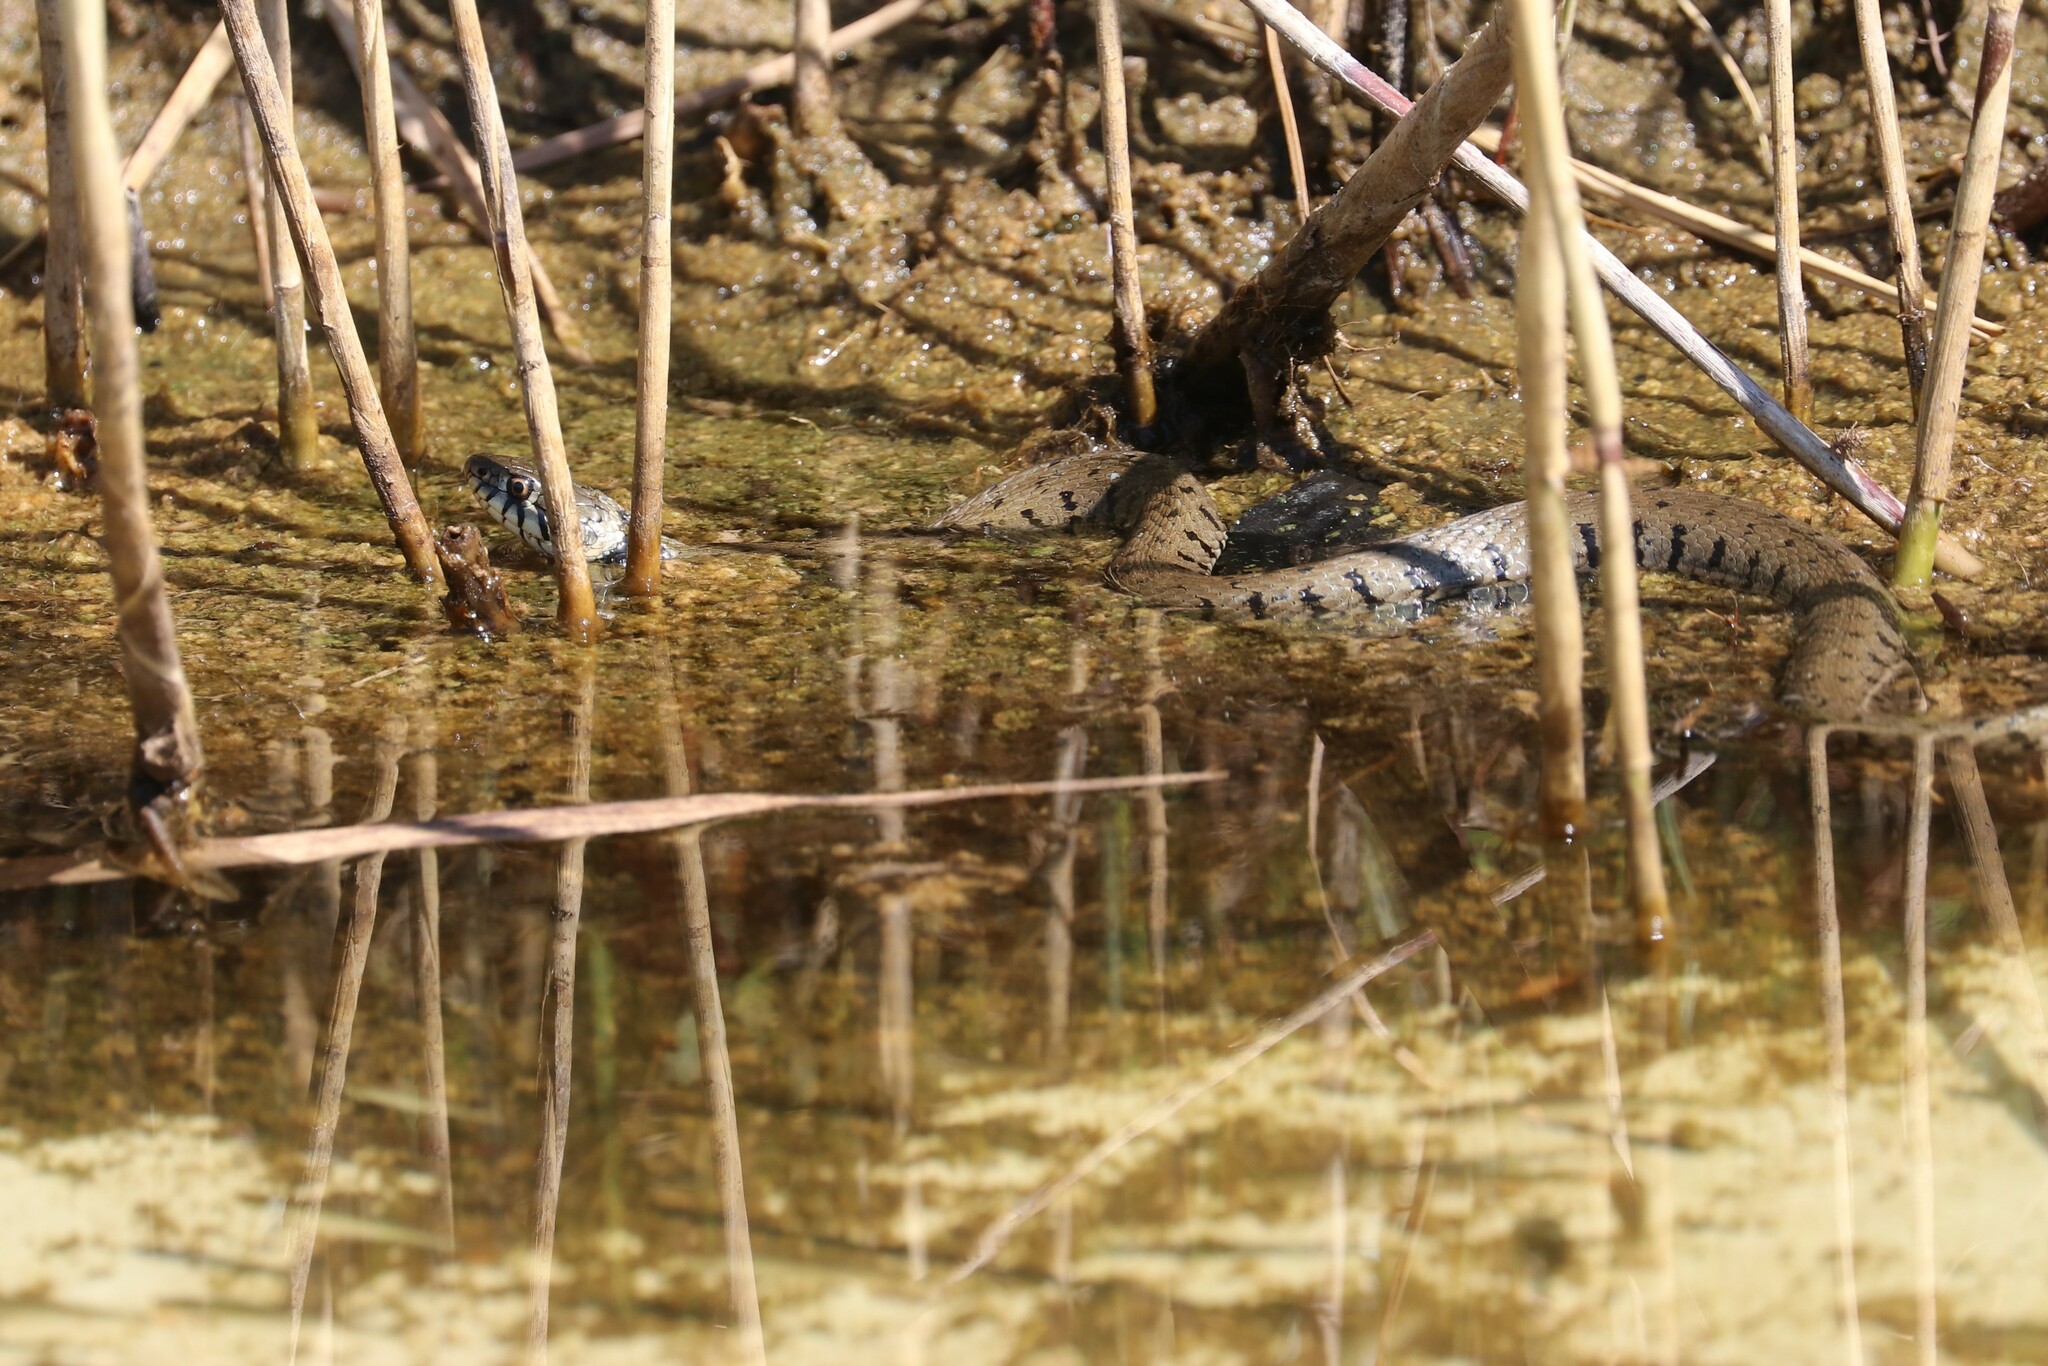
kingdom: Animalia
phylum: Chordata
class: Squamata
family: Colubridae
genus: Natrix
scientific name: Natrix helvetica
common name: Banded grass snake
